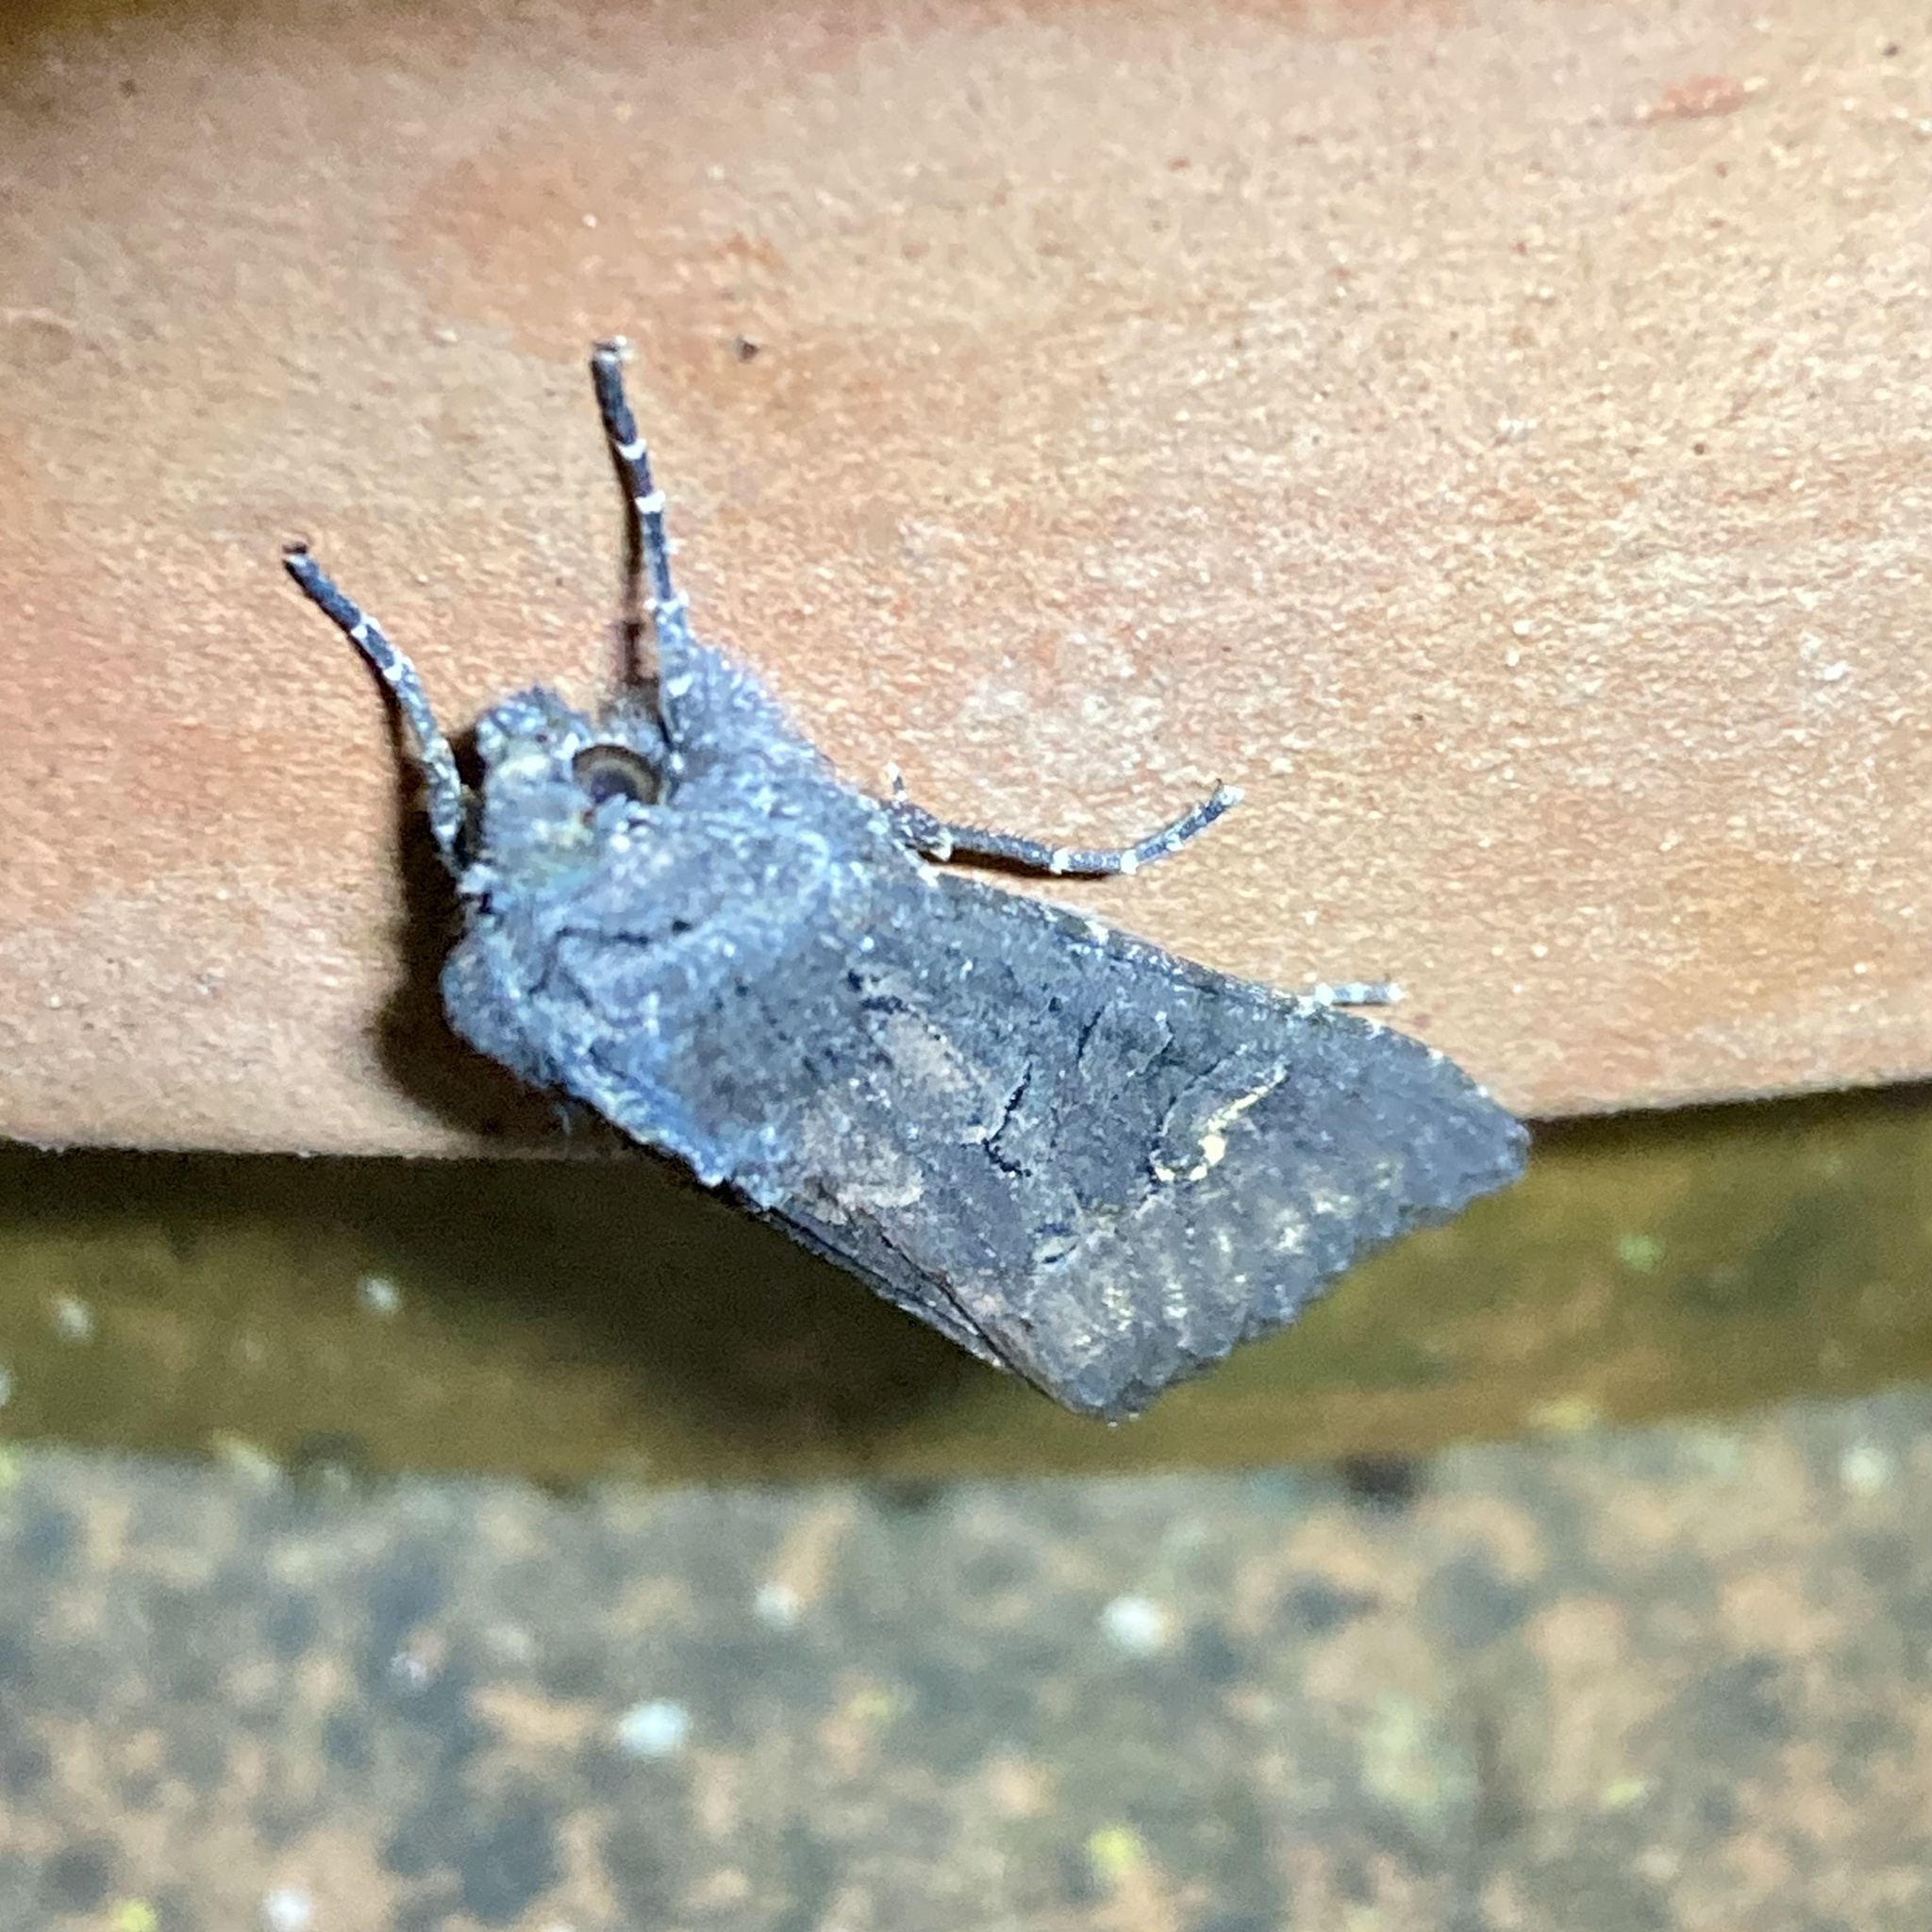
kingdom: Animalia
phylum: Arthropoda
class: Insecta
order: Lepidoptera
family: Noctuidae
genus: Aporophyla
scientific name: Aporophyla nigra
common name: Black rustic
